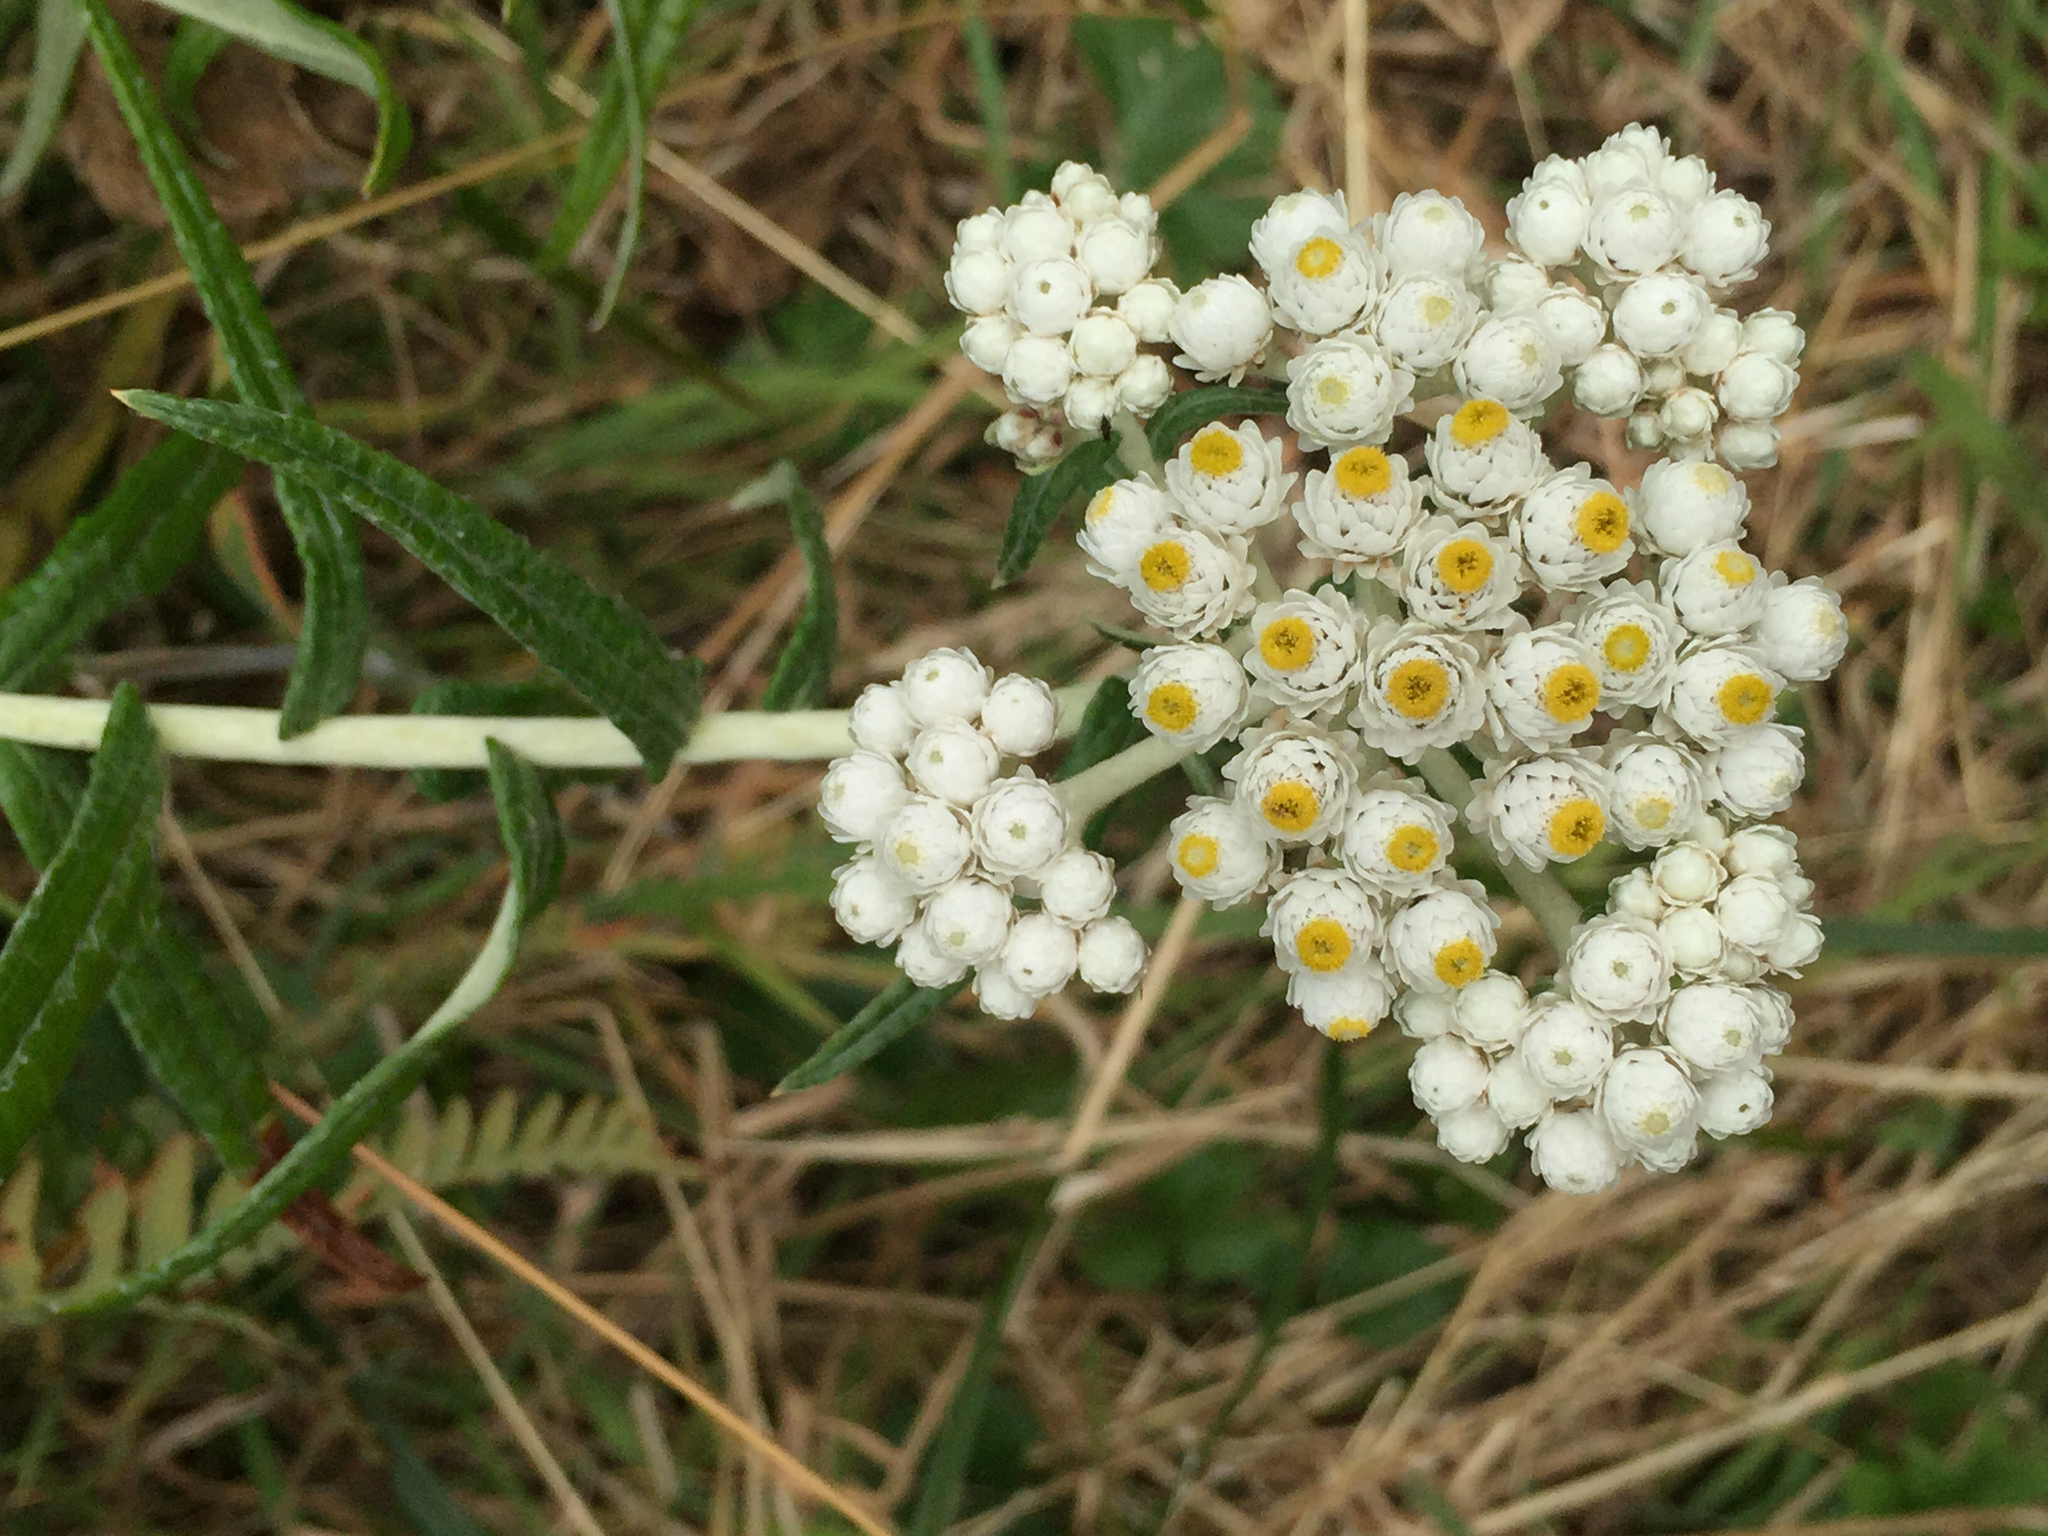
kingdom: Plantae
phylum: Tracheophyta
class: Magnoliopsida
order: Asterales
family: Asteraceae
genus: Anaphalis
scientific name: Anaphalis margaritacea
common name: Pearly everlasting
